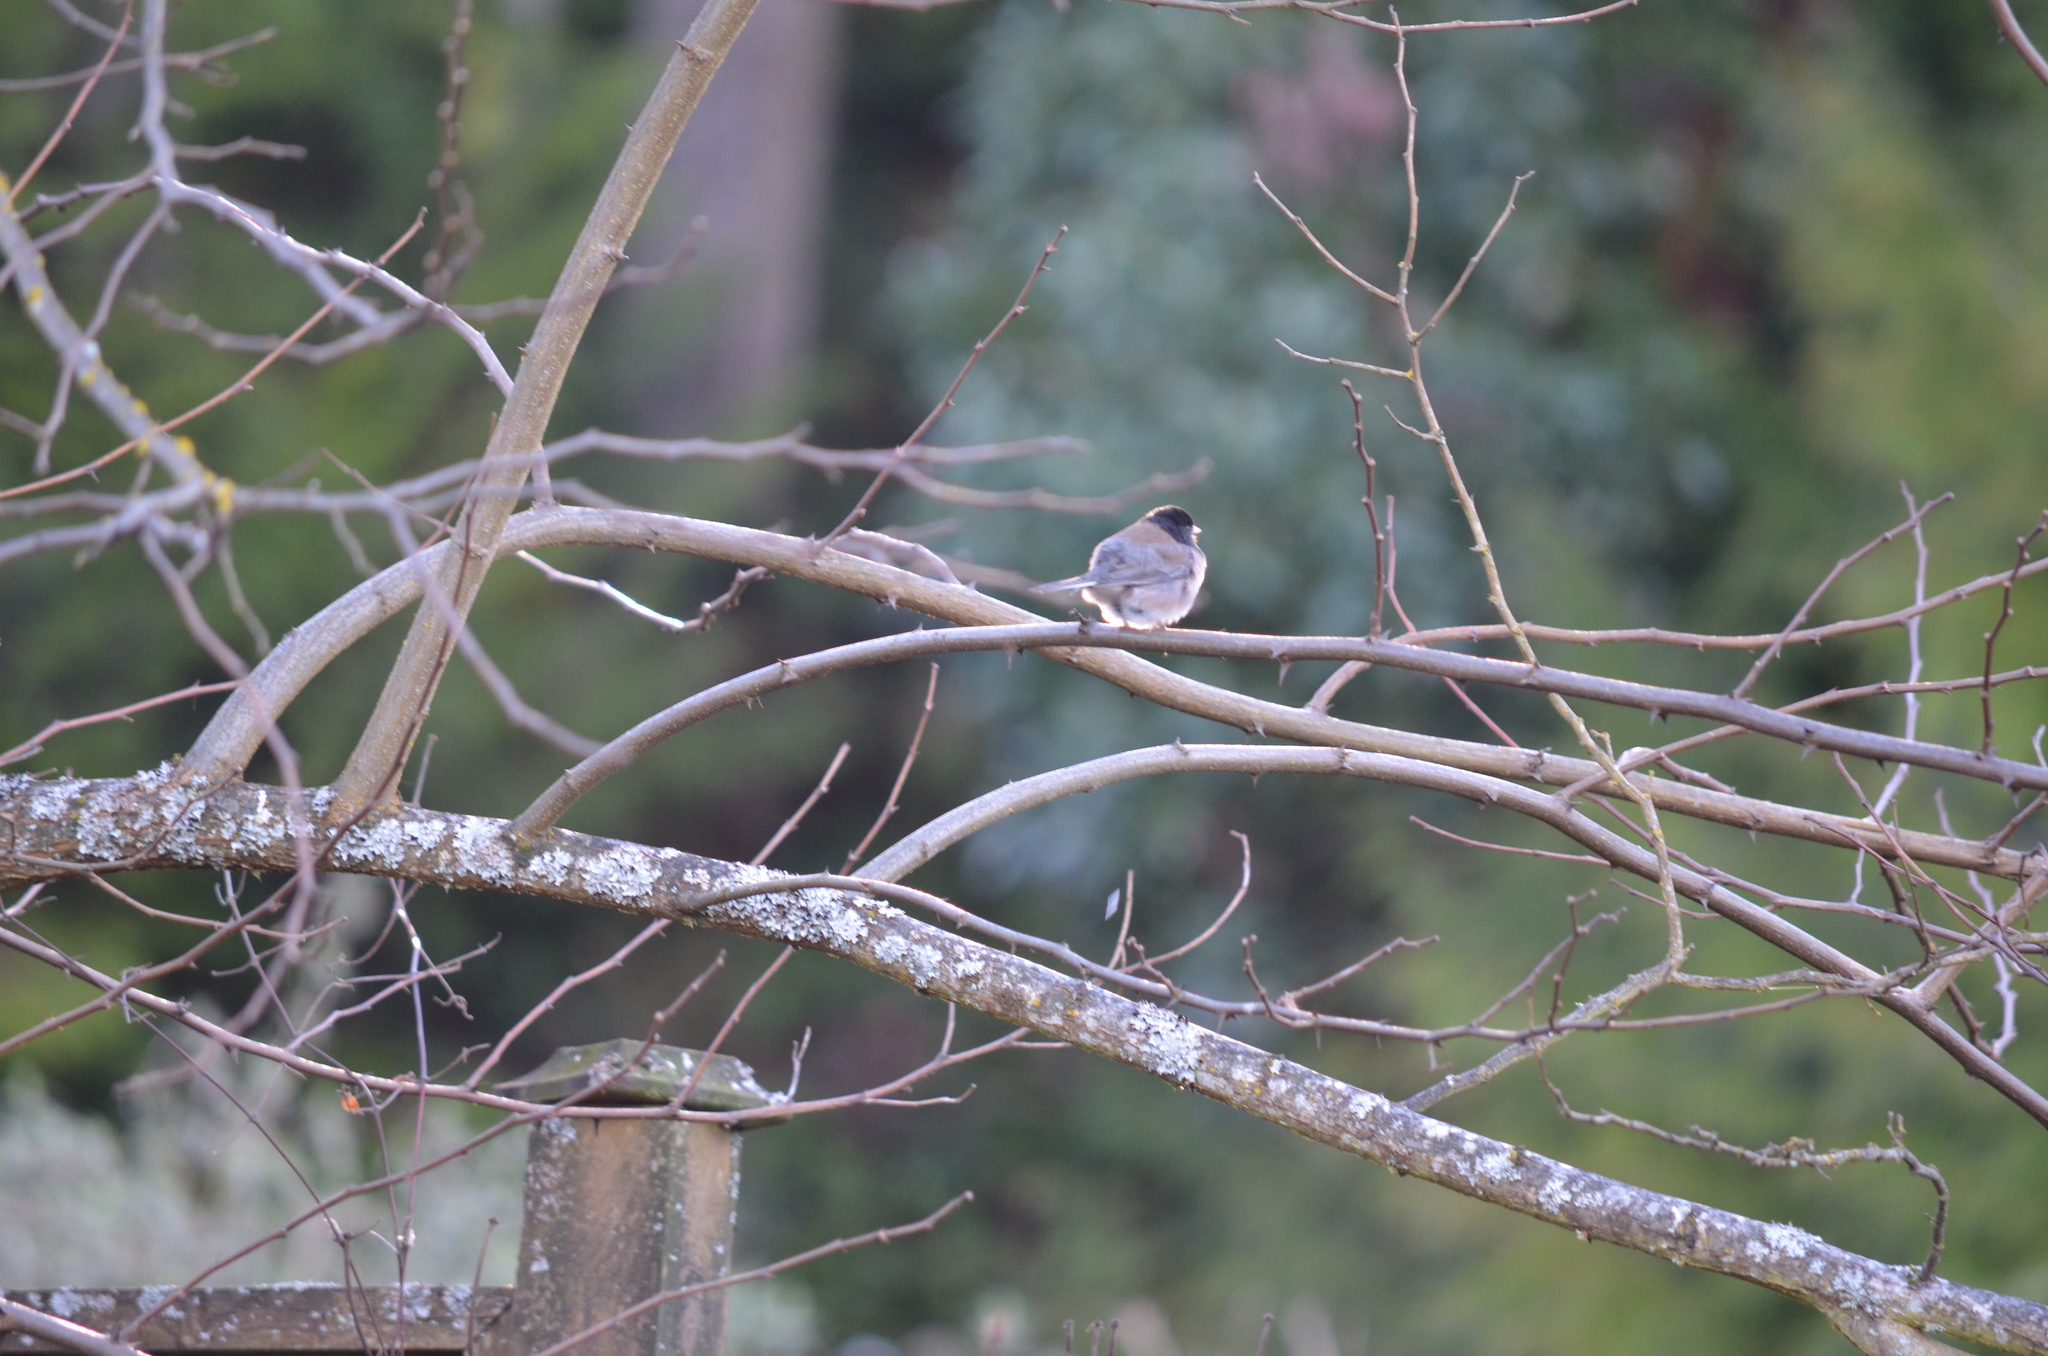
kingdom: Animalia
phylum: Chordata
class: Aves
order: Passeriformes
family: Passerellidae
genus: Junco
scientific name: Junco hyemalis
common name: Dark-eyed junco
